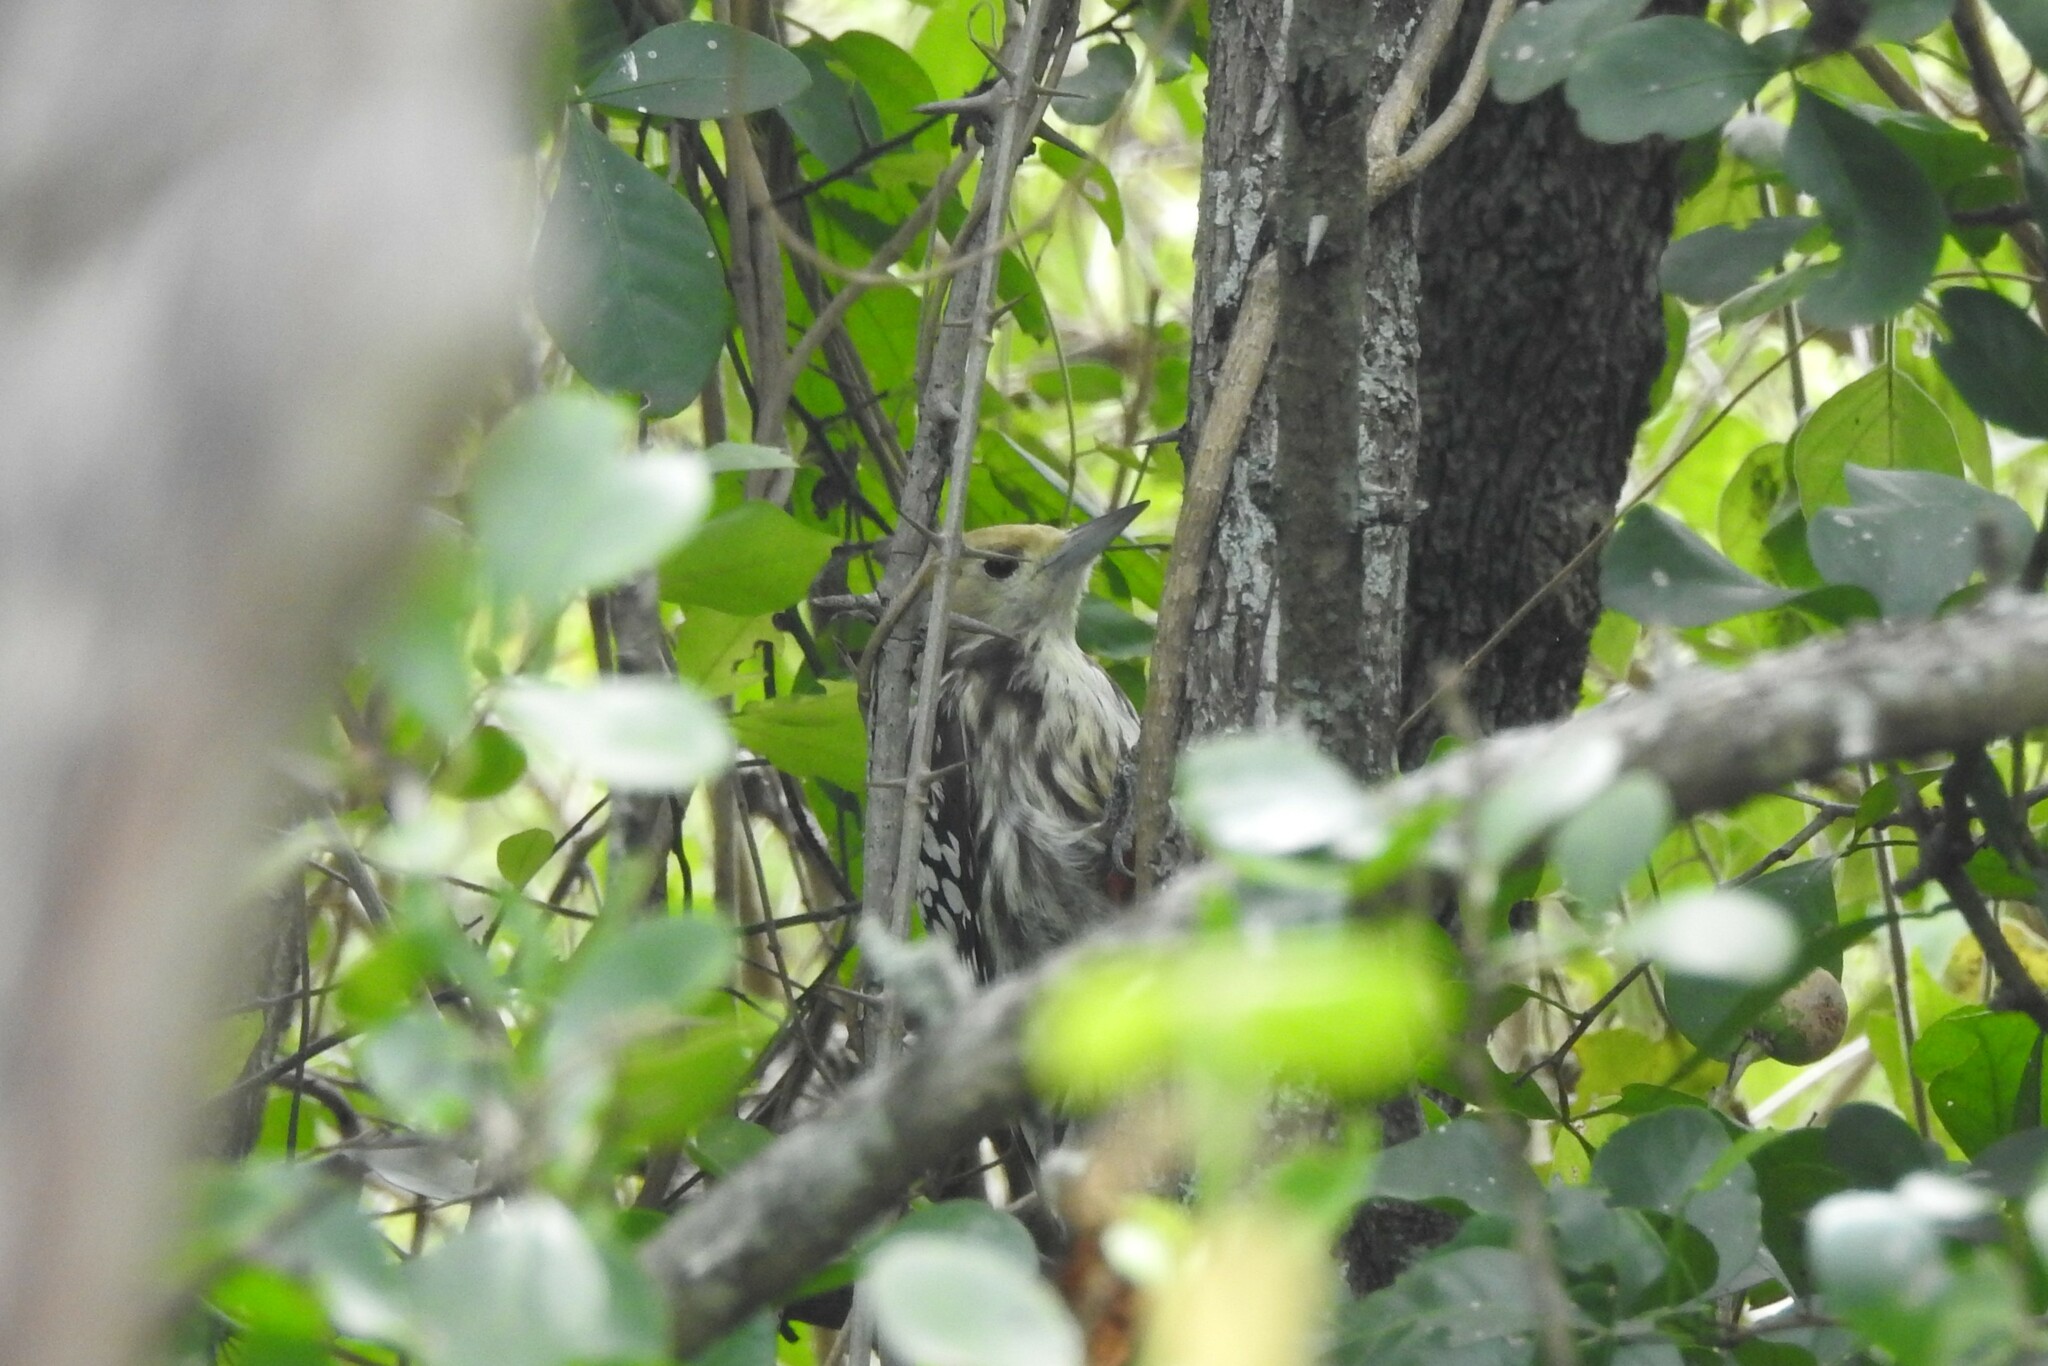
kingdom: Animalia
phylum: Chordata
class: Aves
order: Piciformes
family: Picidae
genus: Leiopicus
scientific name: Leiopicus mahrattensis
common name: Yellow-crowned woodpecker
